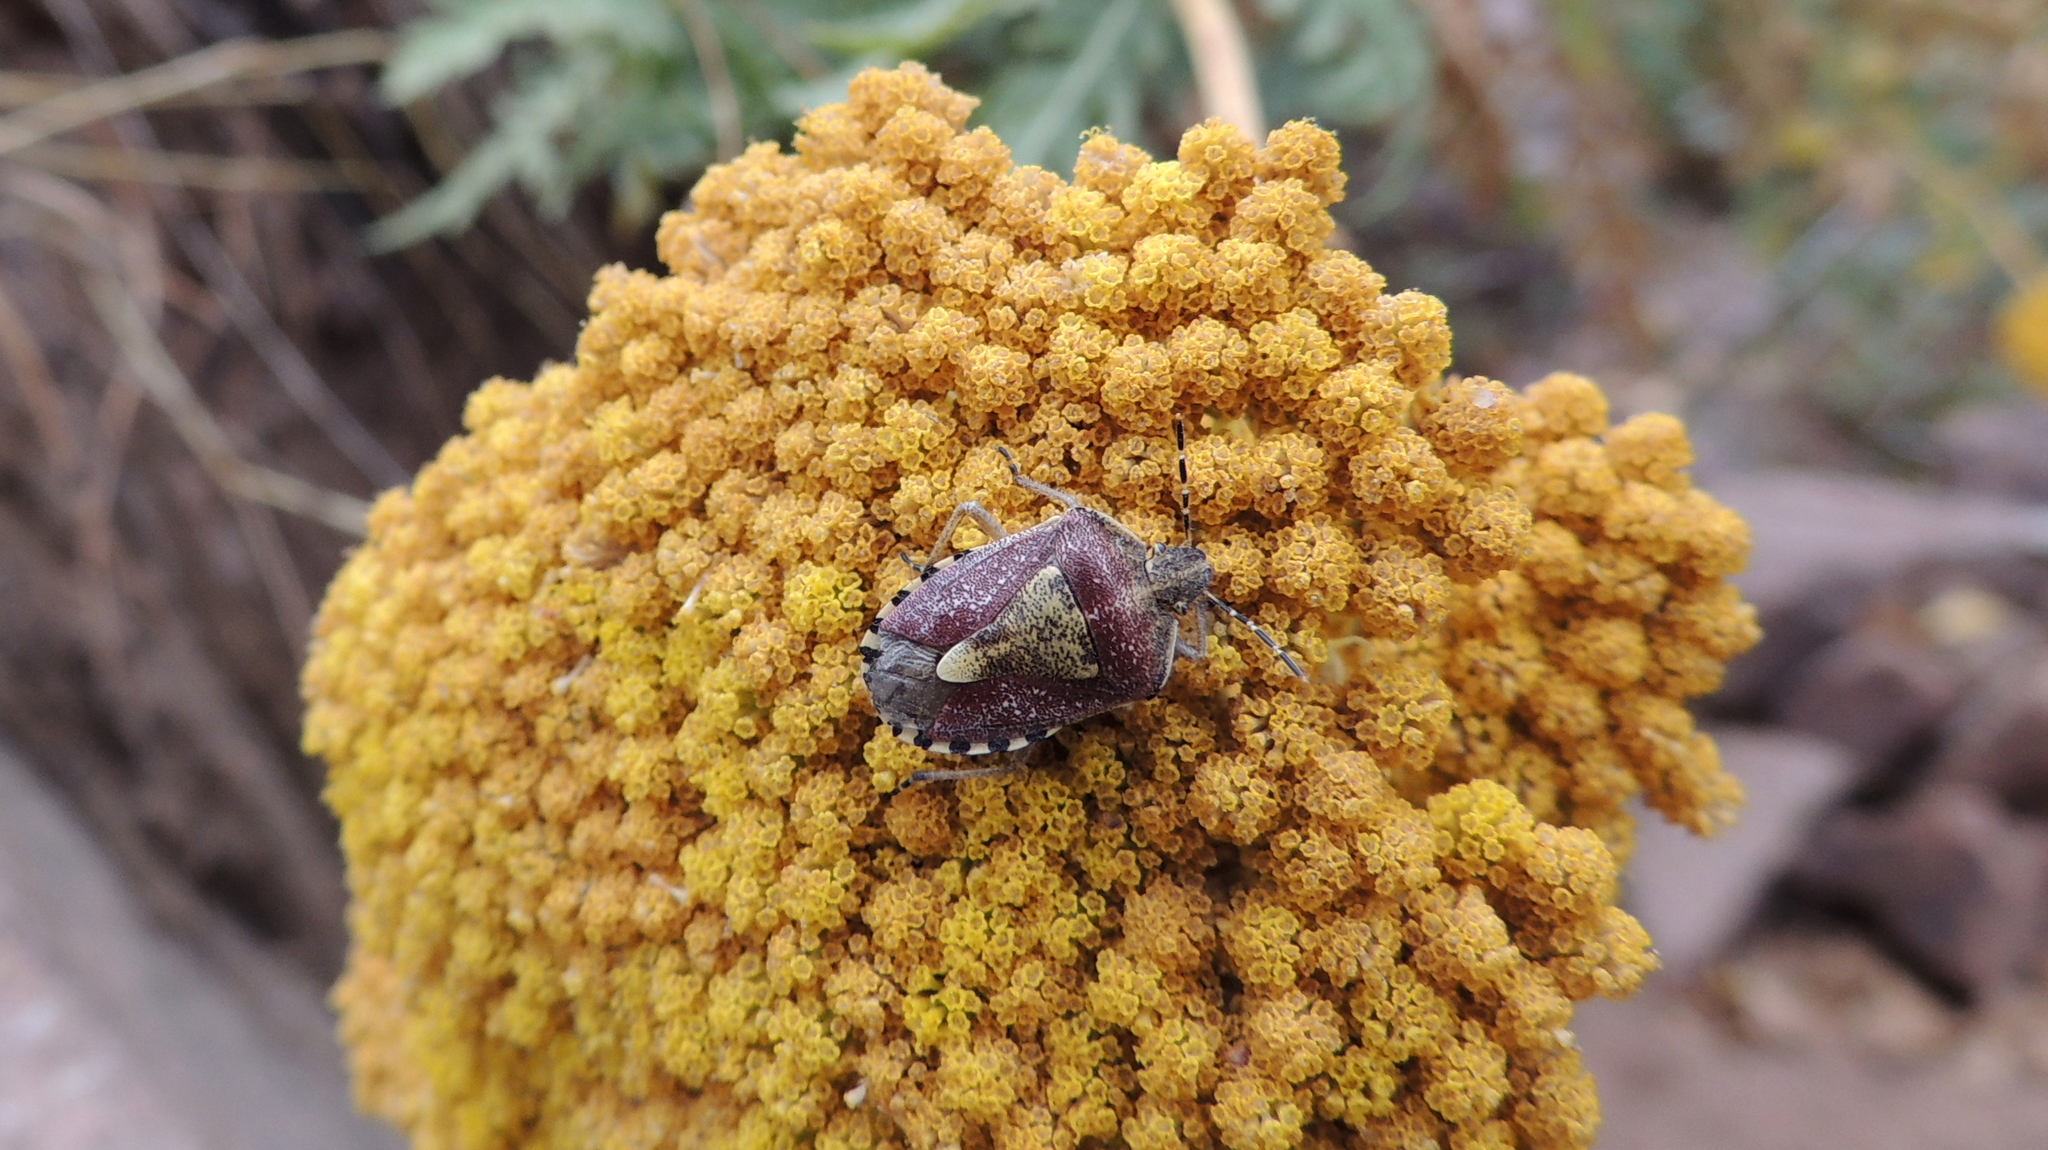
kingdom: Animalia
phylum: Arthropoda
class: Insecta
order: Hemiptera
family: Pentatomidae
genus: Dolycoris
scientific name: Dolycoris baccarum
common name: Sloe bug
